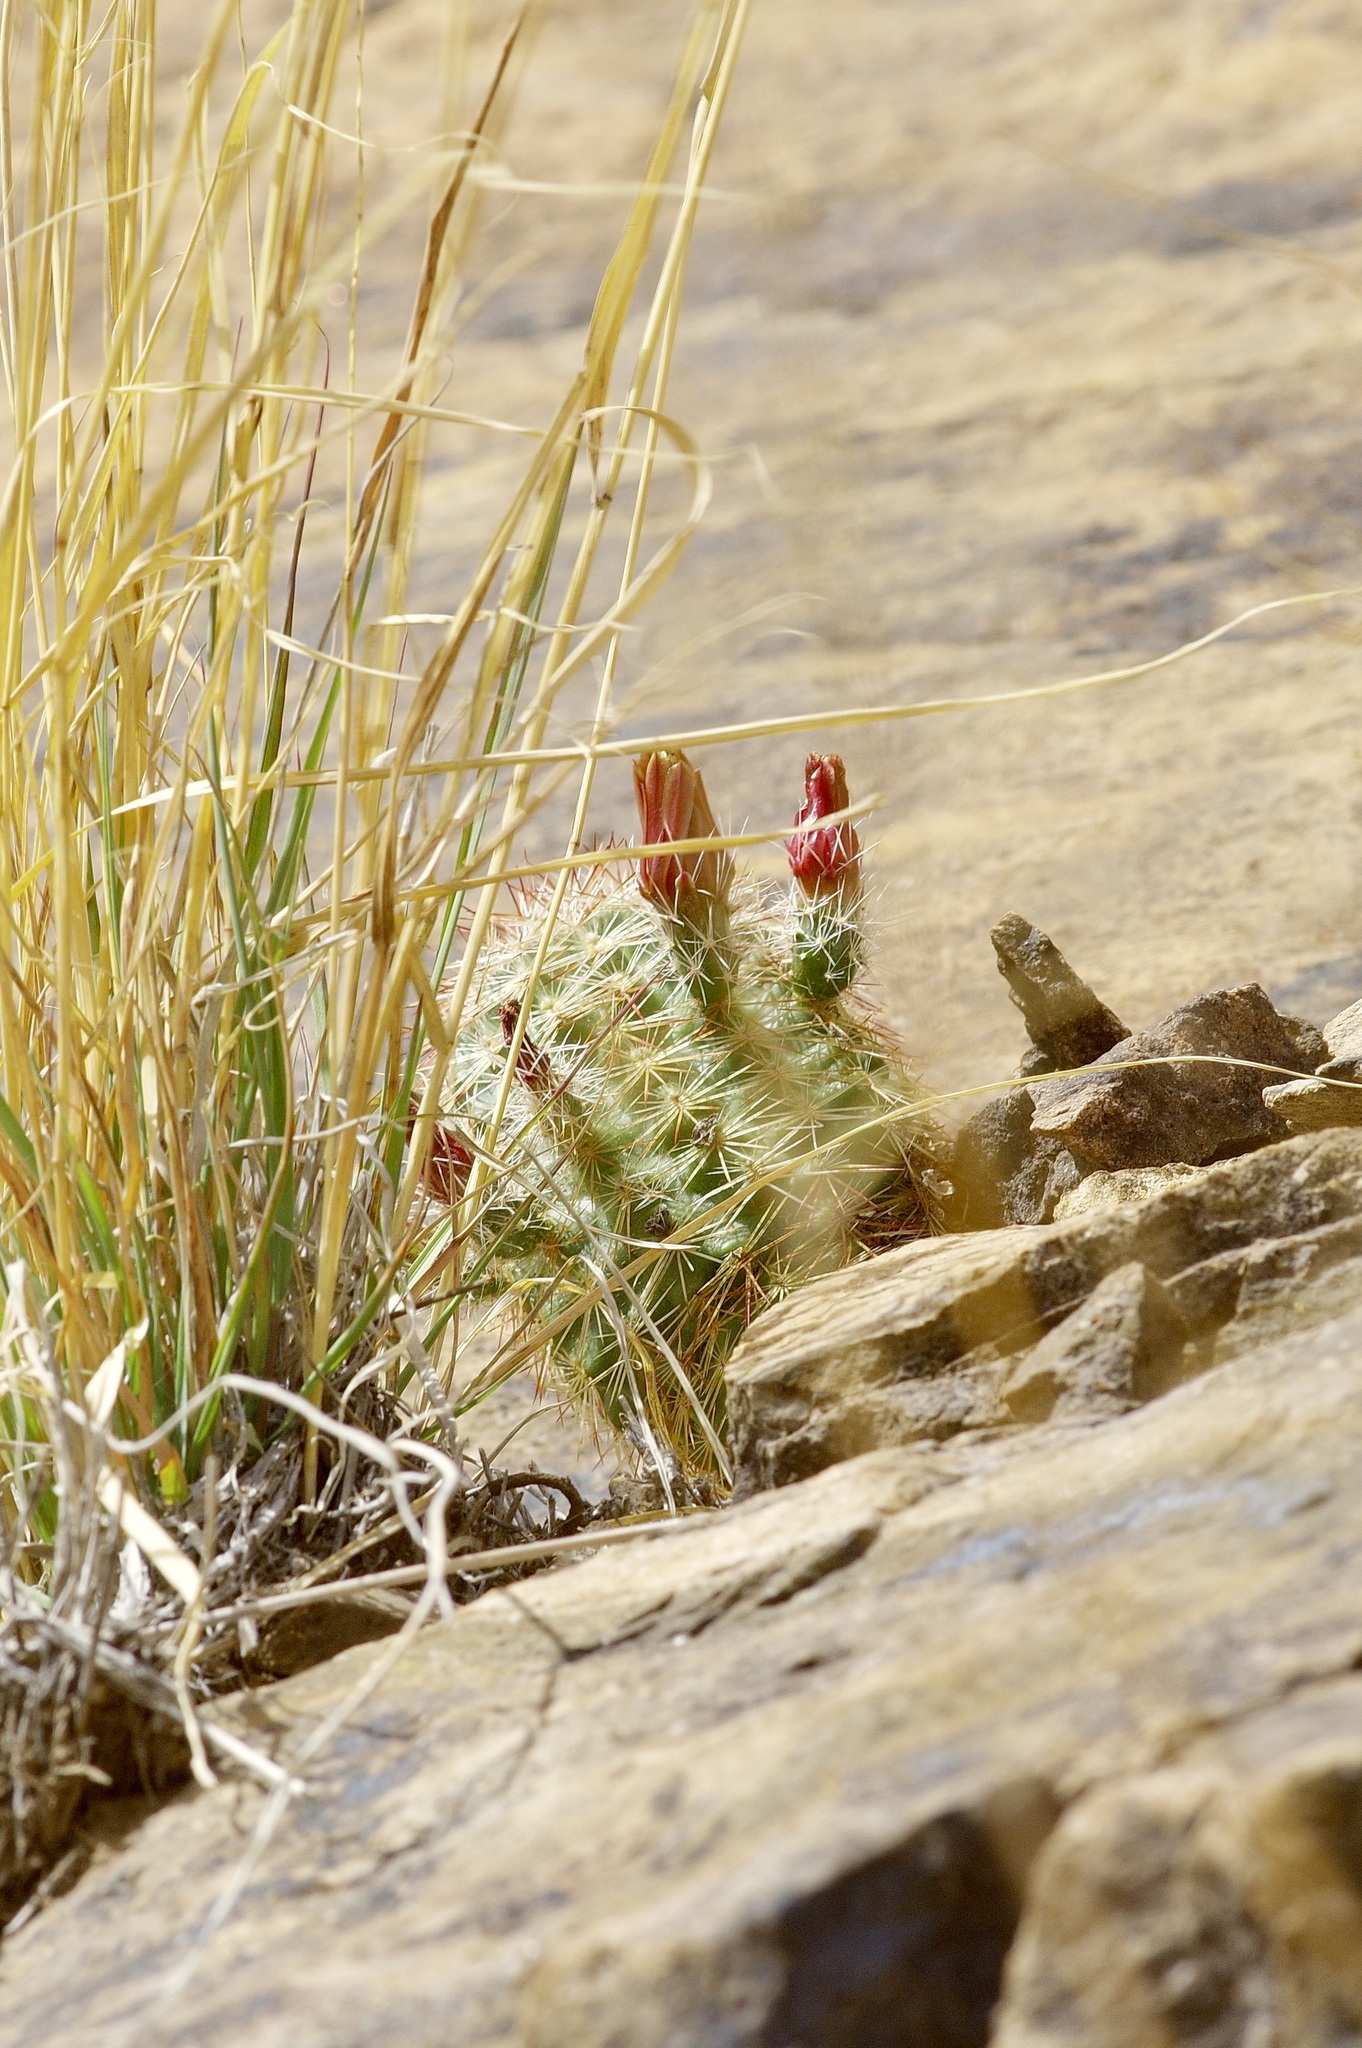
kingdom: Plantae
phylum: Tracheophyta
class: Magnoliopsida
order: Caryophyllales
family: Cactaceae
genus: Echinocereus
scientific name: Echinocereus viridiflorus
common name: Nylon hedgehog cactus
